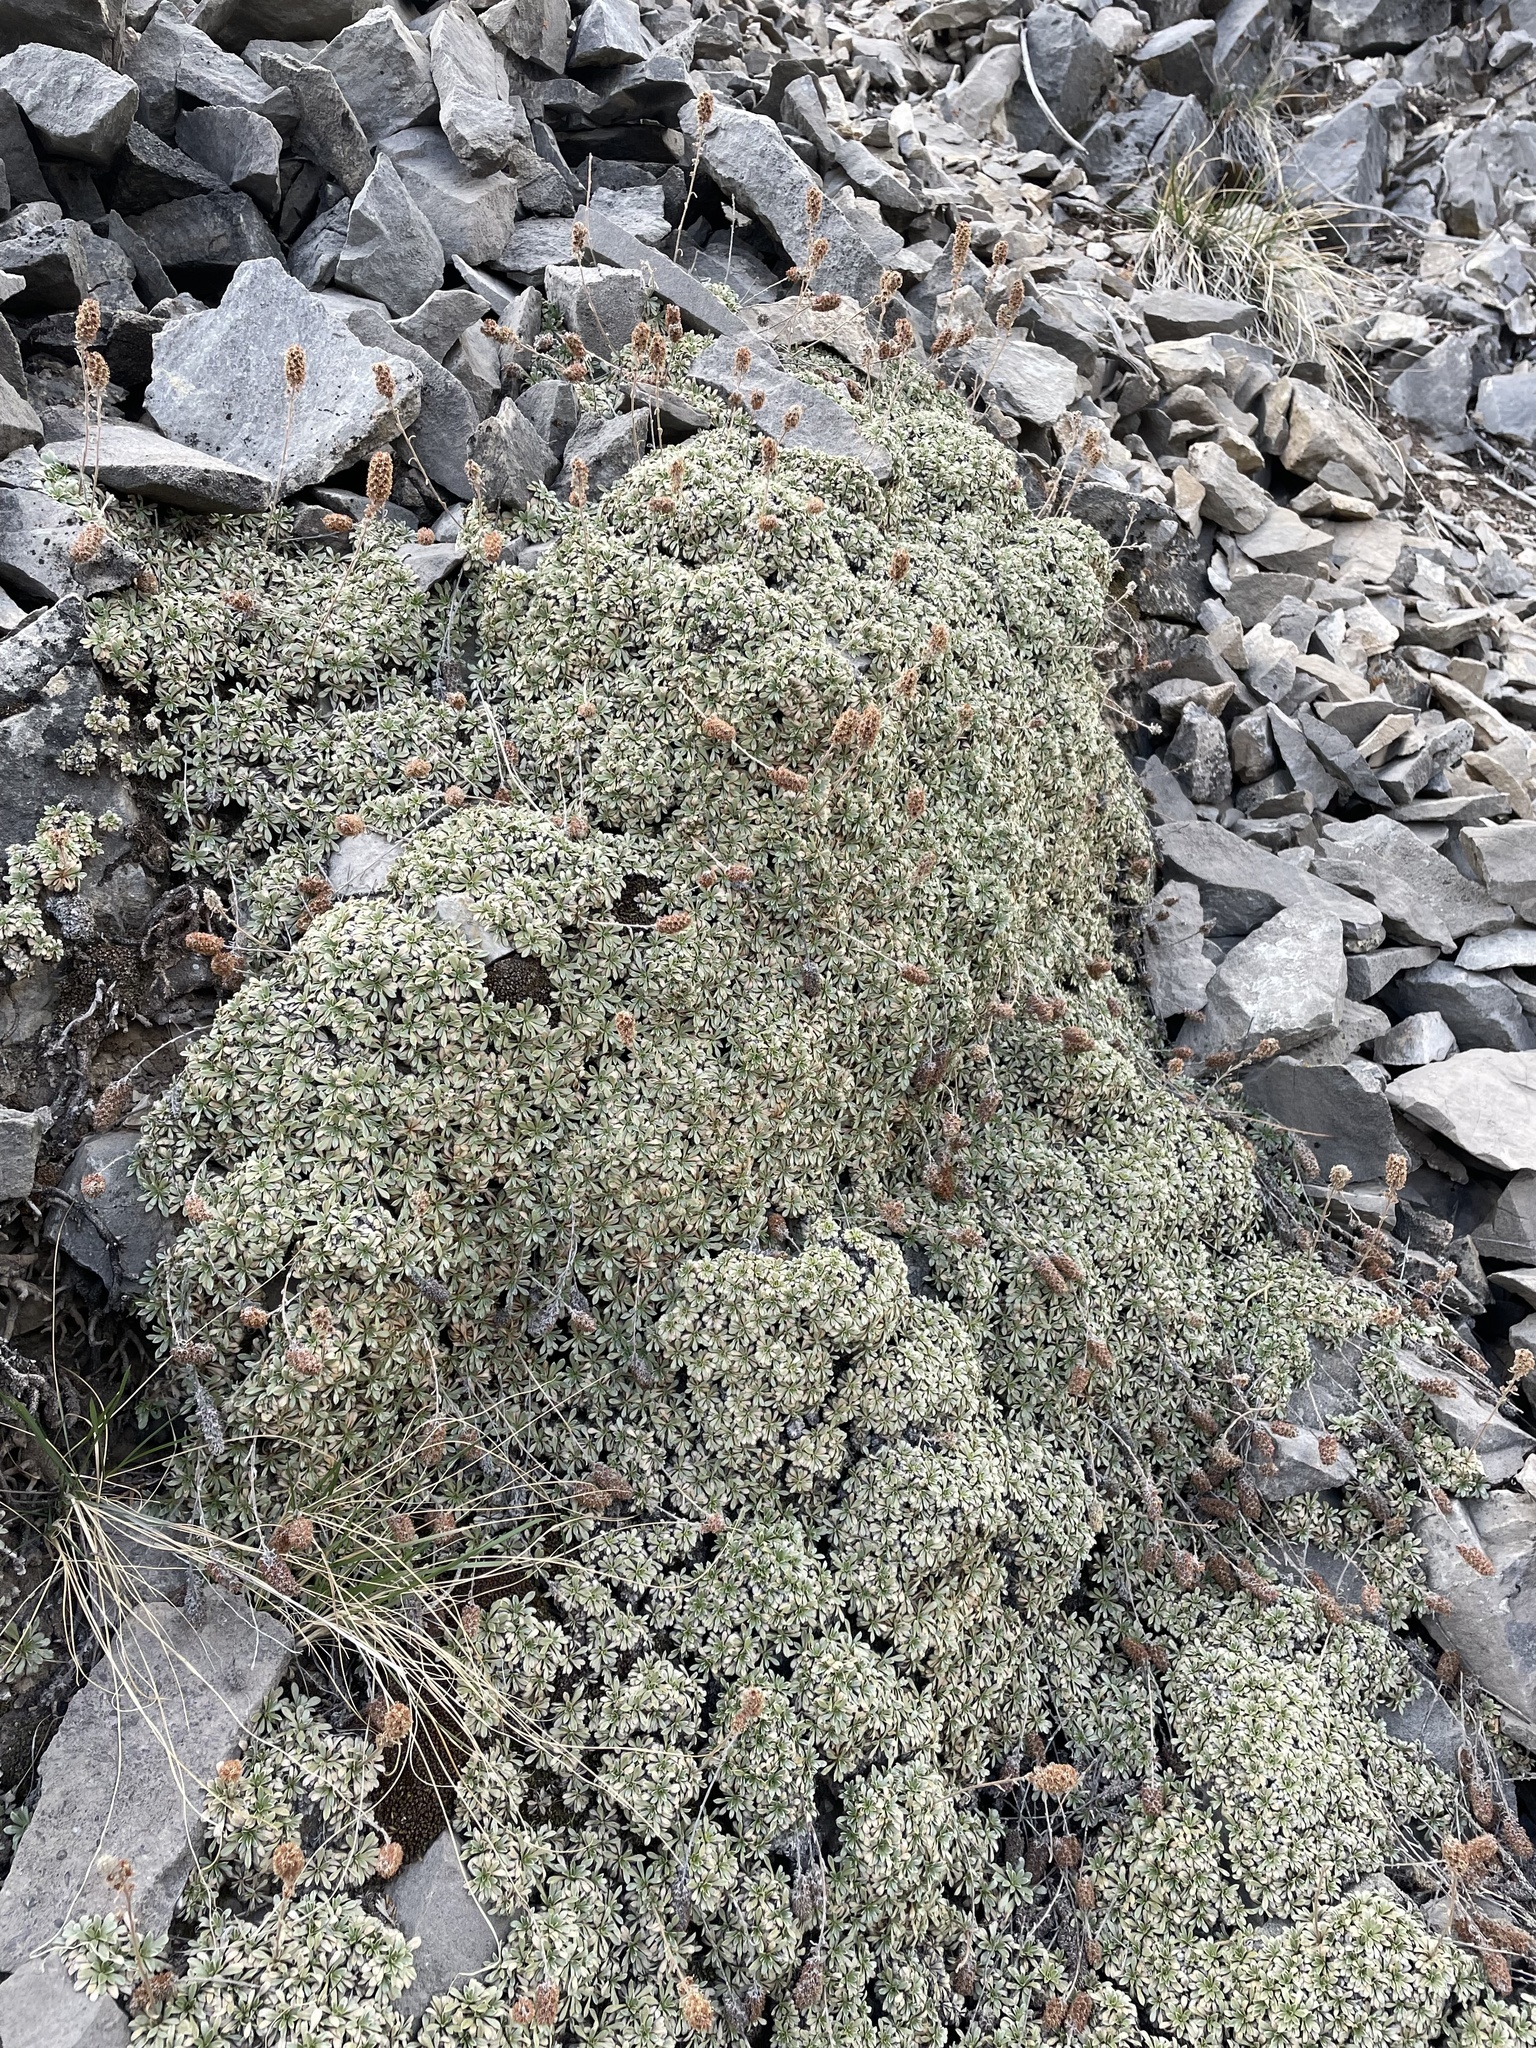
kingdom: Plantae
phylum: Tracheophyta
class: Magnoliopsida
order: Rosales
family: Rosaceae
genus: Petrophytum
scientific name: Petrophytum caespitosum
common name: Mat rockspirea
